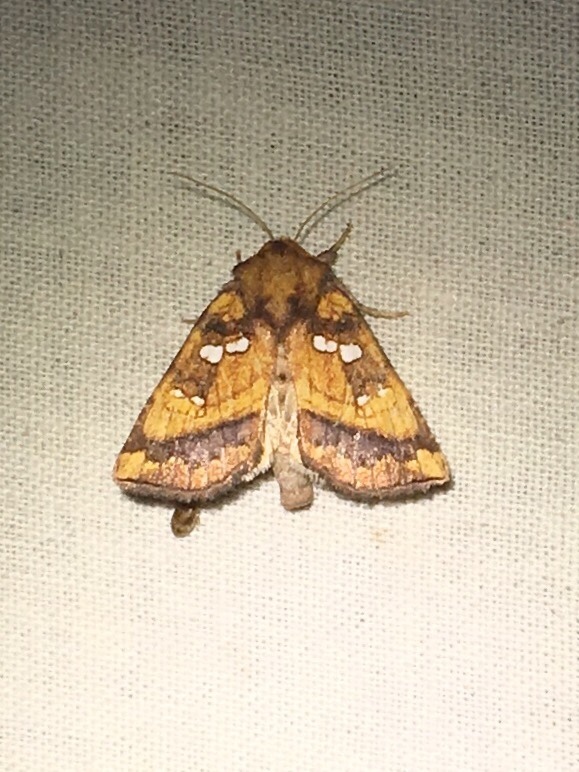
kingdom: Animalia
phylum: Arthropoda
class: Insecta
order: Lepidoptera
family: Noctuidae
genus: Papaipema
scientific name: Papaipema pterisii
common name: Bracken borer moth
